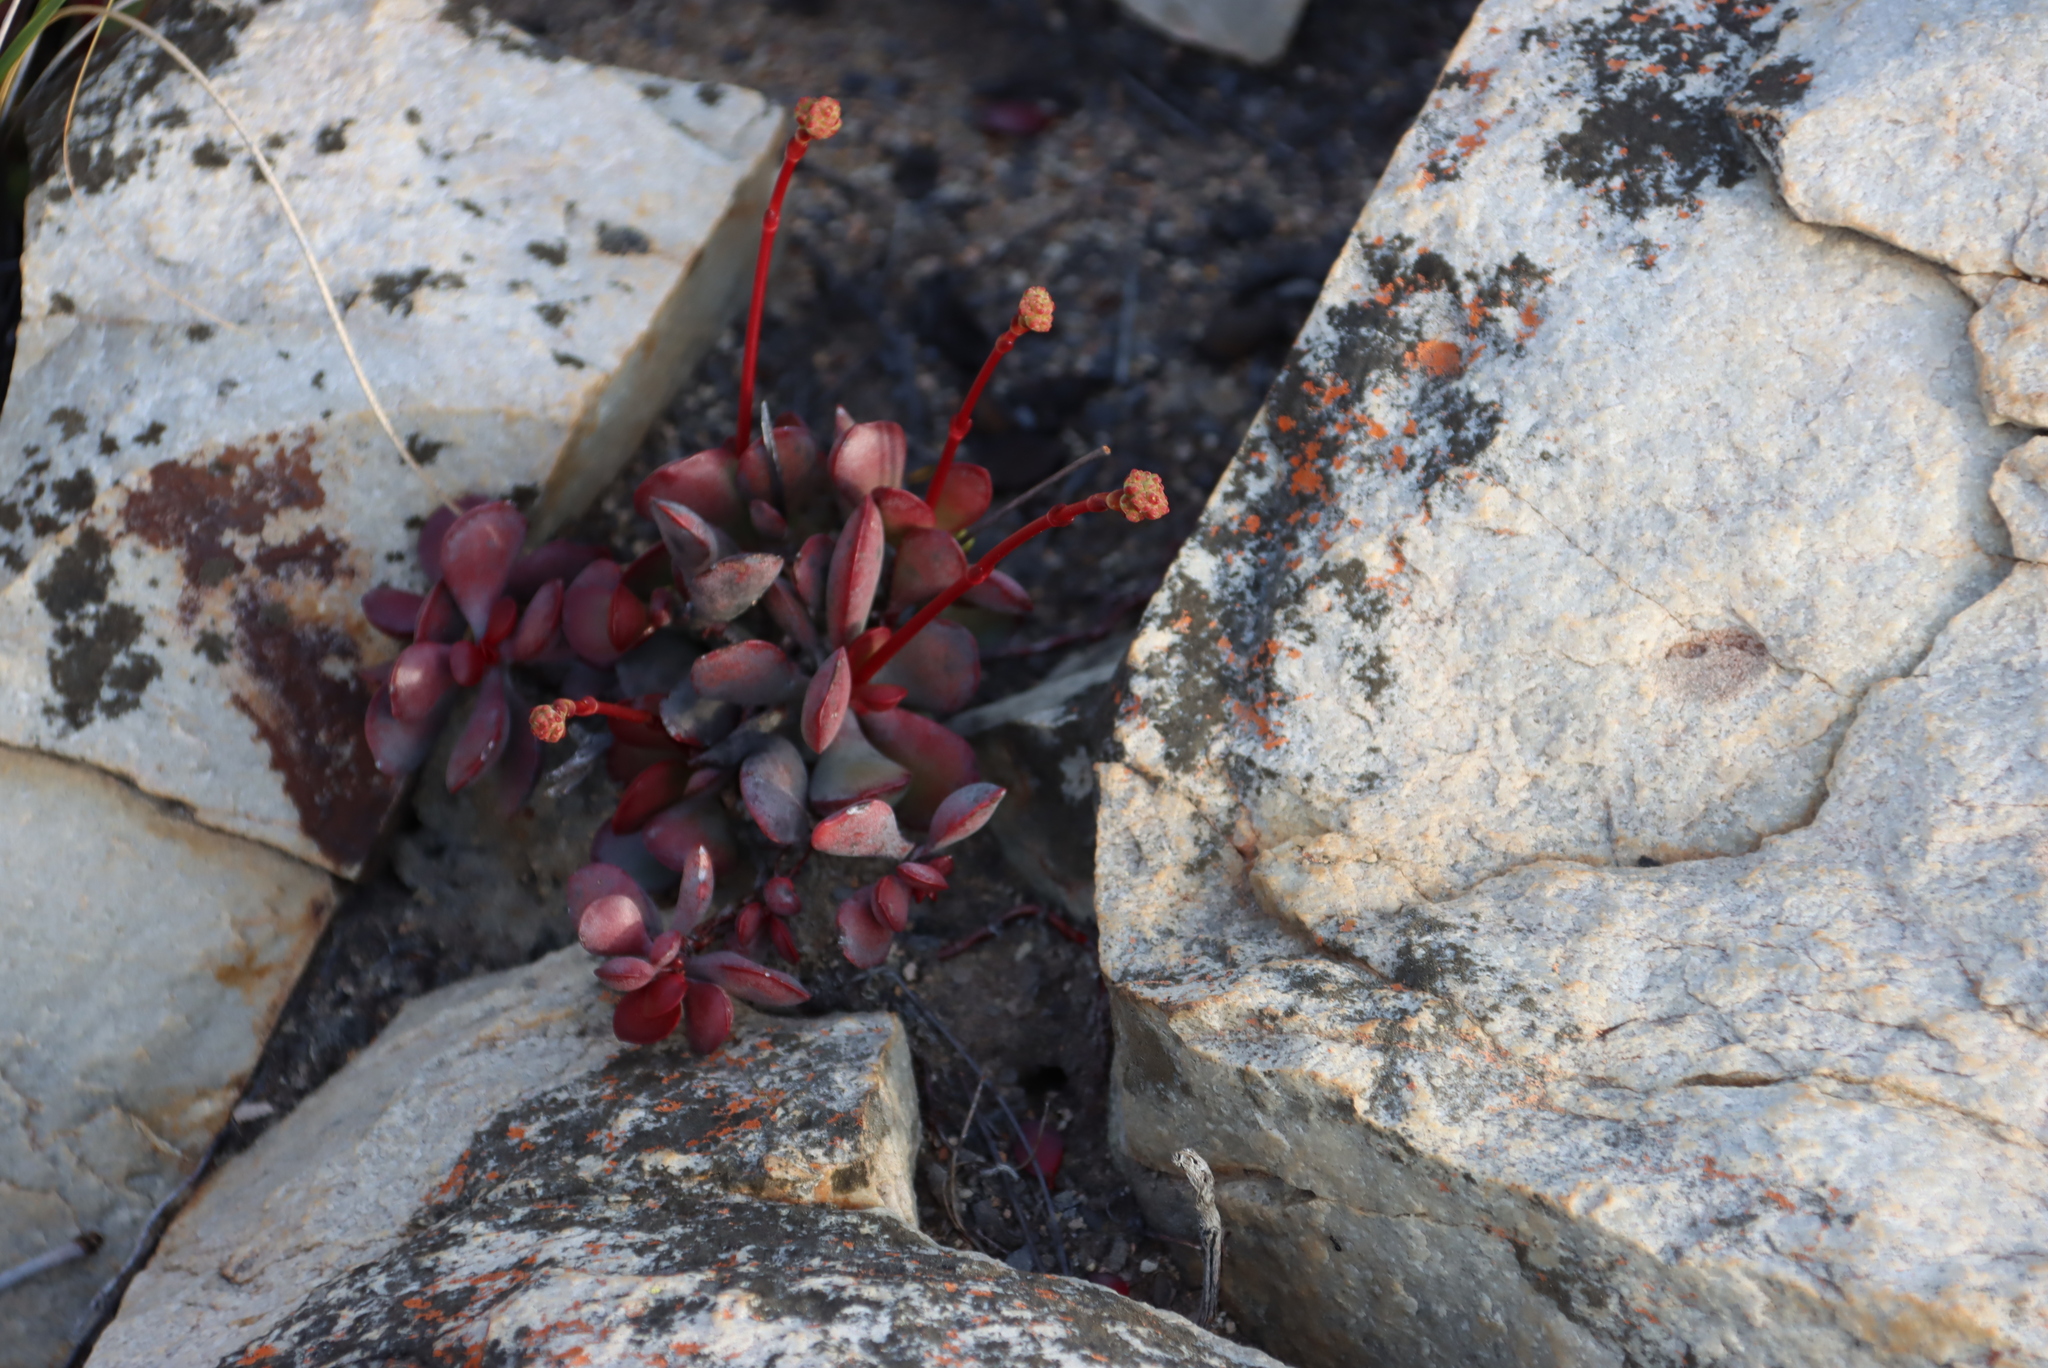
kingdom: Plantae
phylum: Tracheophyta
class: Magnoliopsida
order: Saxifragales
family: Crassulaceae
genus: Crassula
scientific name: Crassula pubescens
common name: Jersey pigmyweed
